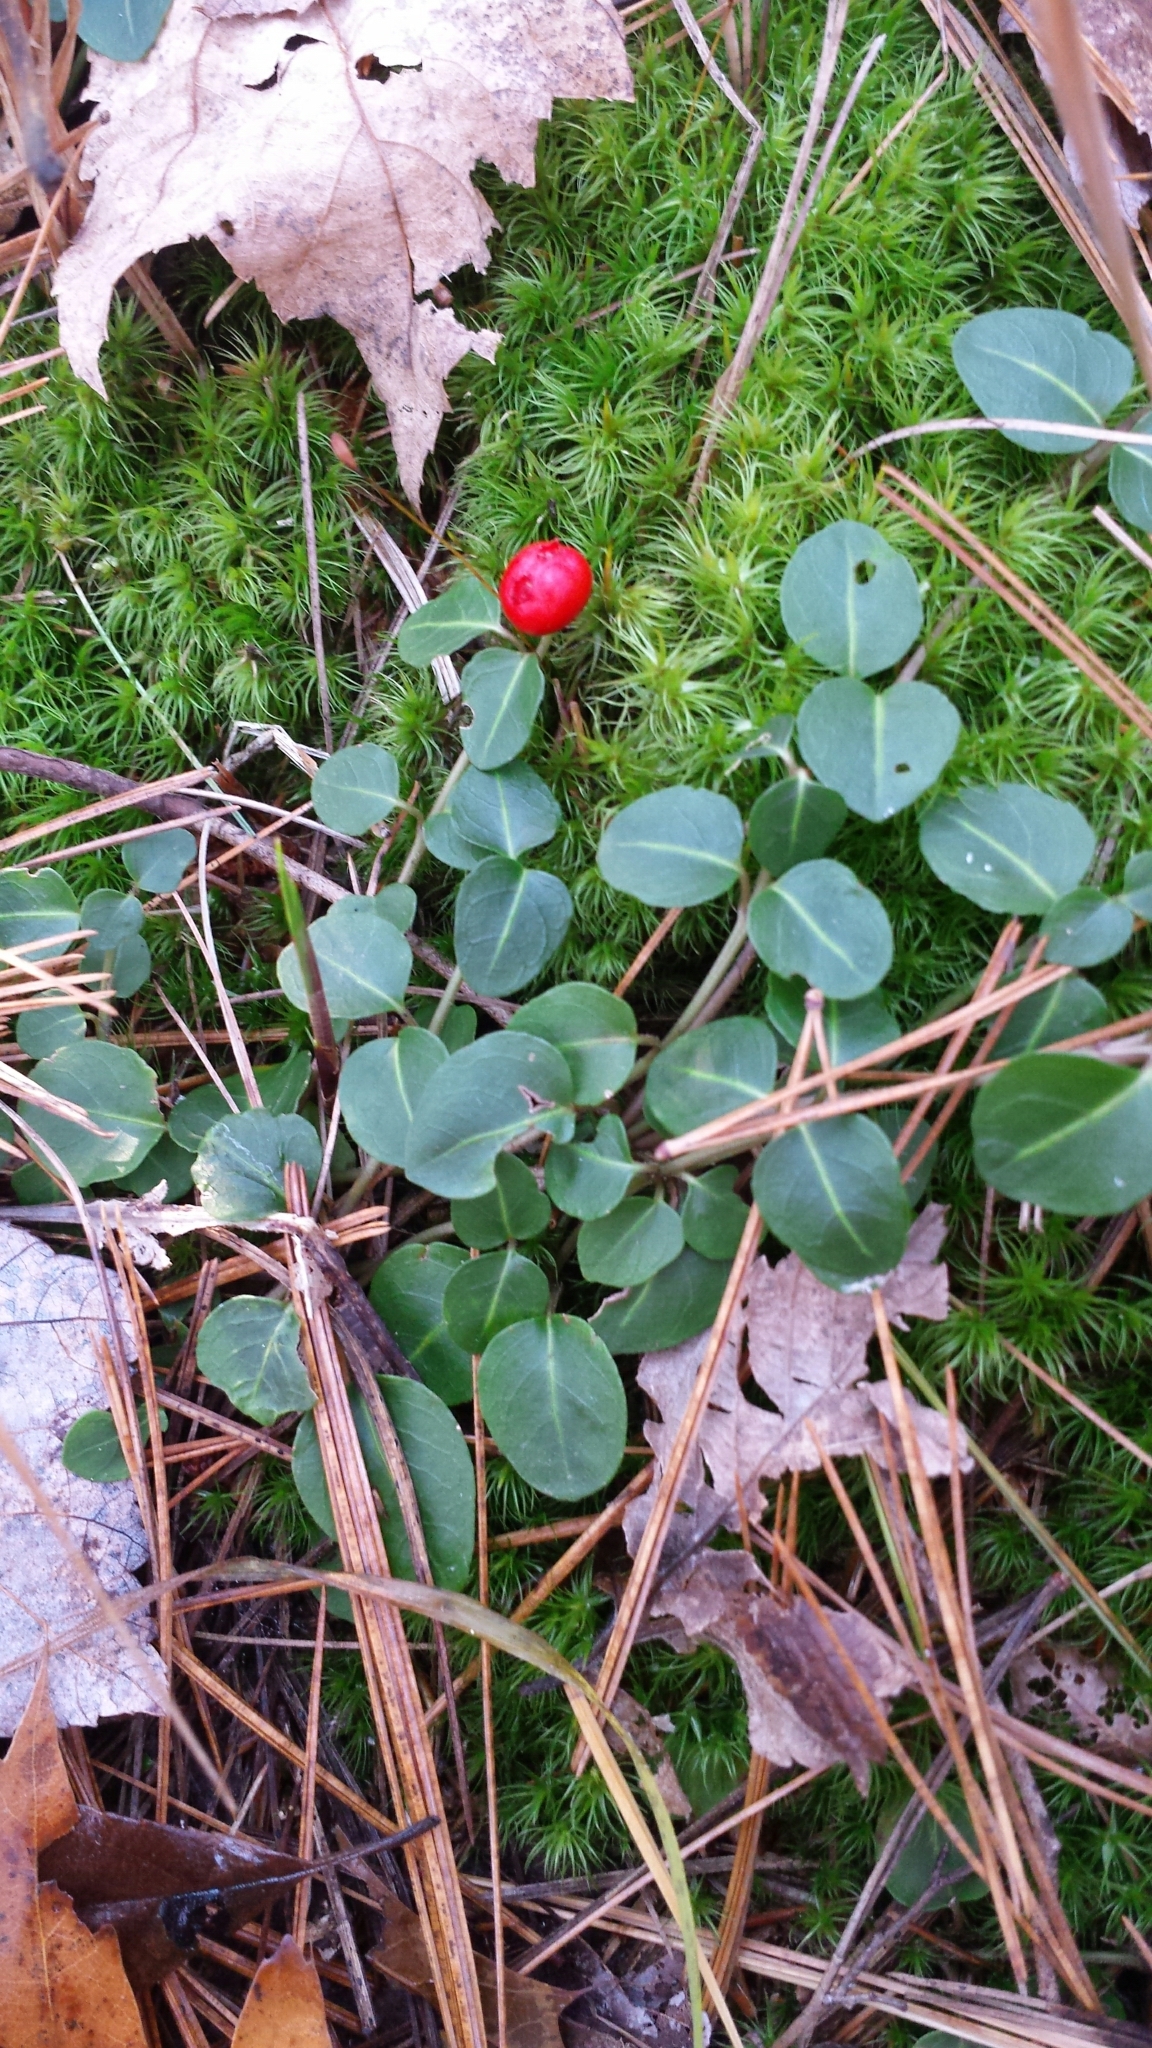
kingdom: Plantae
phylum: Tracheophyta
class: Magnoliopsida
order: Gentianales
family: Rubiaceae
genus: Mitchella
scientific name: Mitchella repens
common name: Partridge-berry
